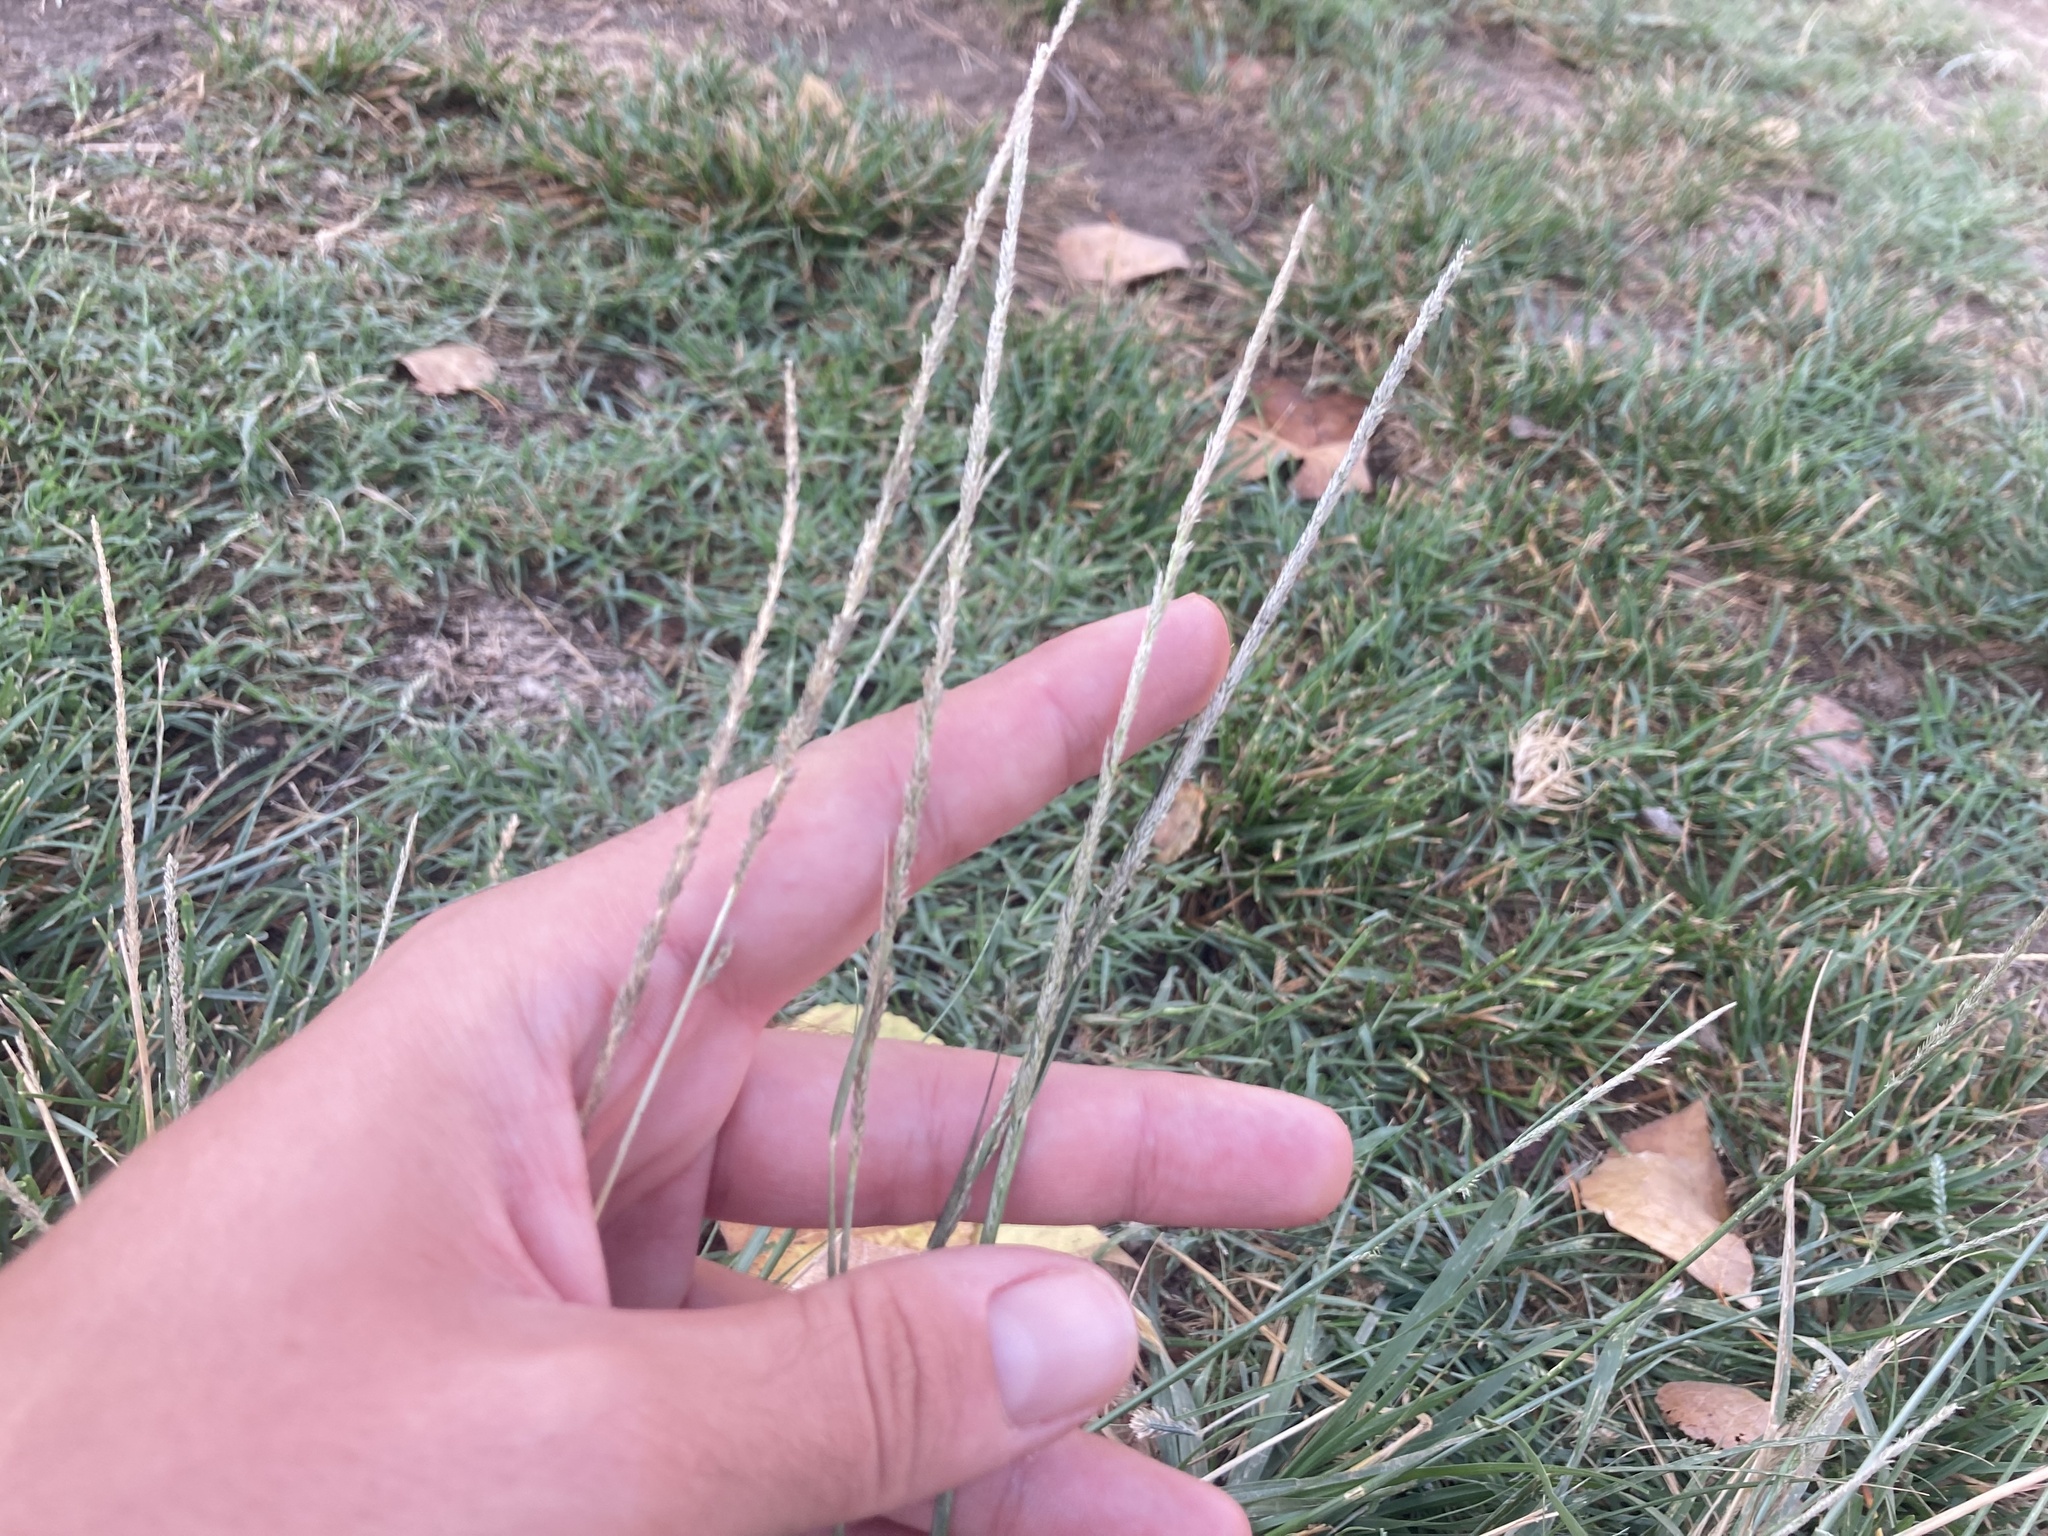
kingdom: Plantae
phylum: Tracheophyta
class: Liliopsida
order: Poales
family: Poaceae
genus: Sporobolus
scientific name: Sporobolus indicus
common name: Smut grass
